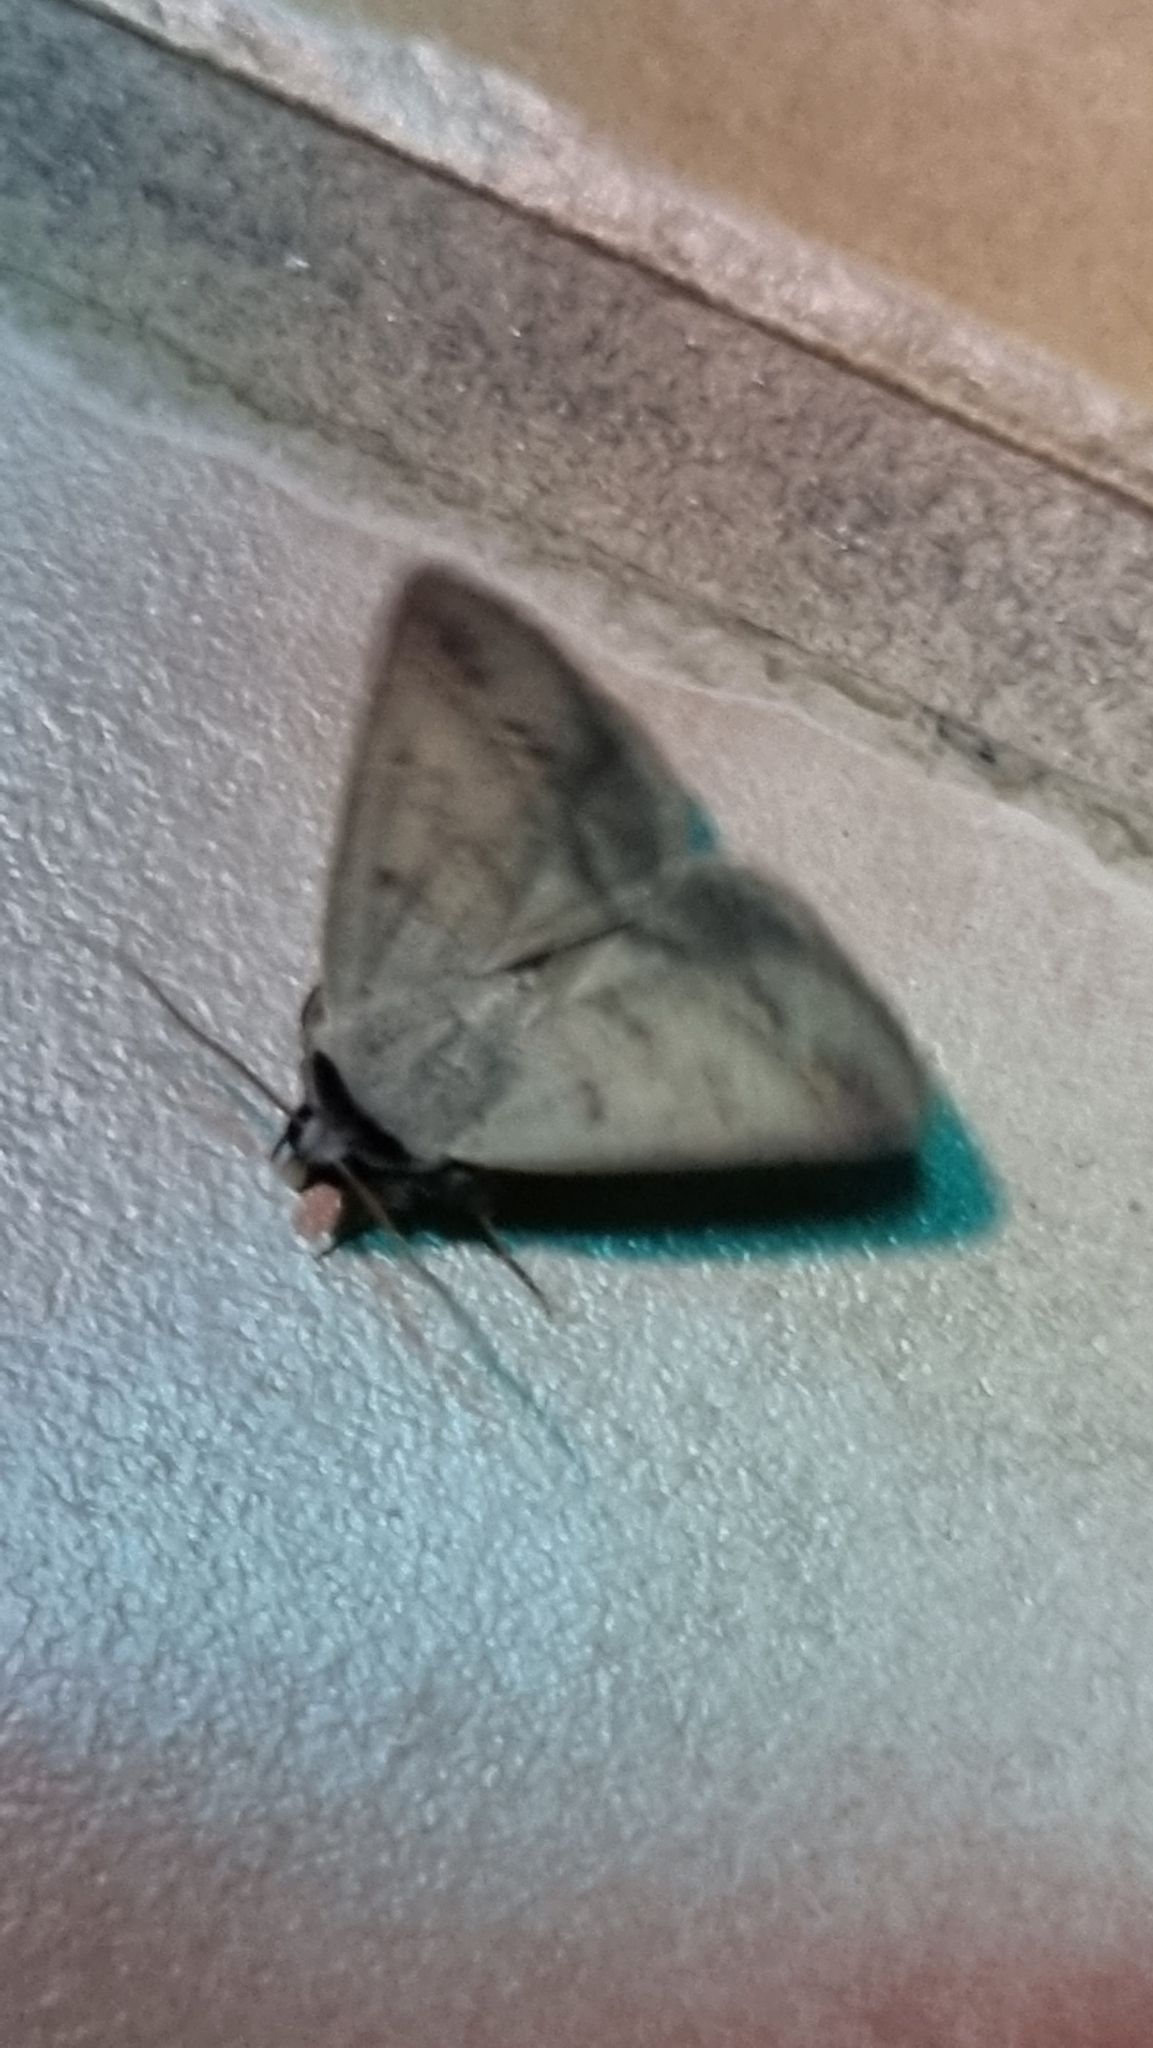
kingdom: Animalia
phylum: Arthropoda
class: Insecta
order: Lepidoptera
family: Erebidae
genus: Pantydia
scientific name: Pantydia sparsa
